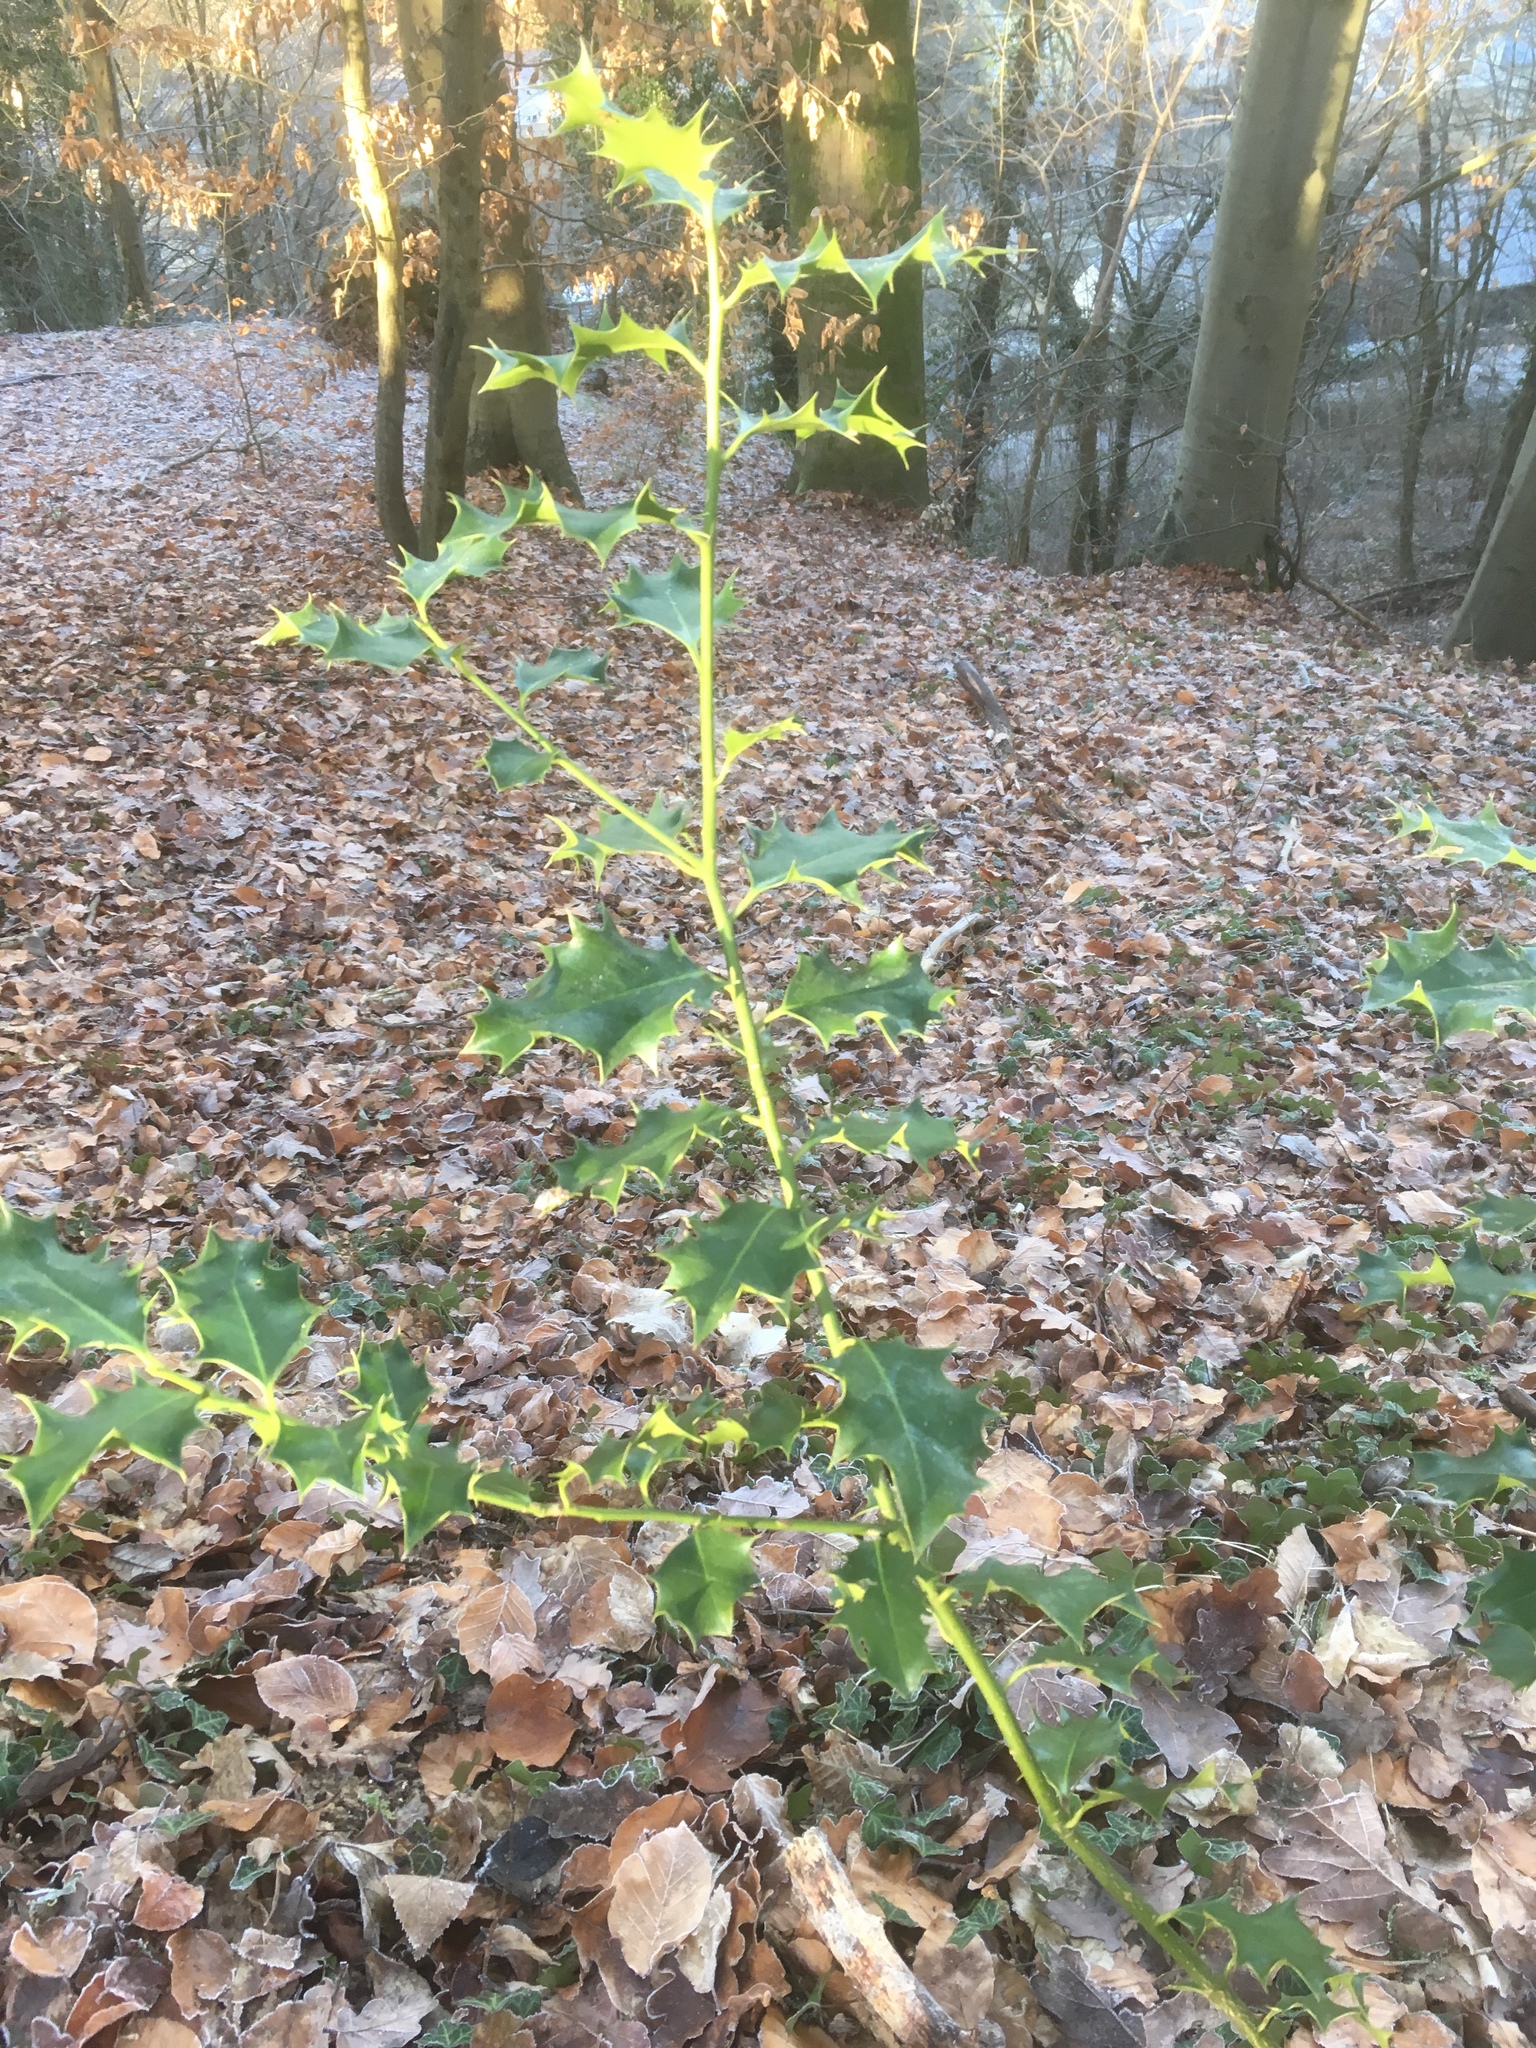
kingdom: Plantae
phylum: Tracheophyta
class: Magnoliopsida
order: Aquifoliales
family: Aquifoliaceae
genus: Ilex
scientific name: Ilex aquifolium
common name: English holly
